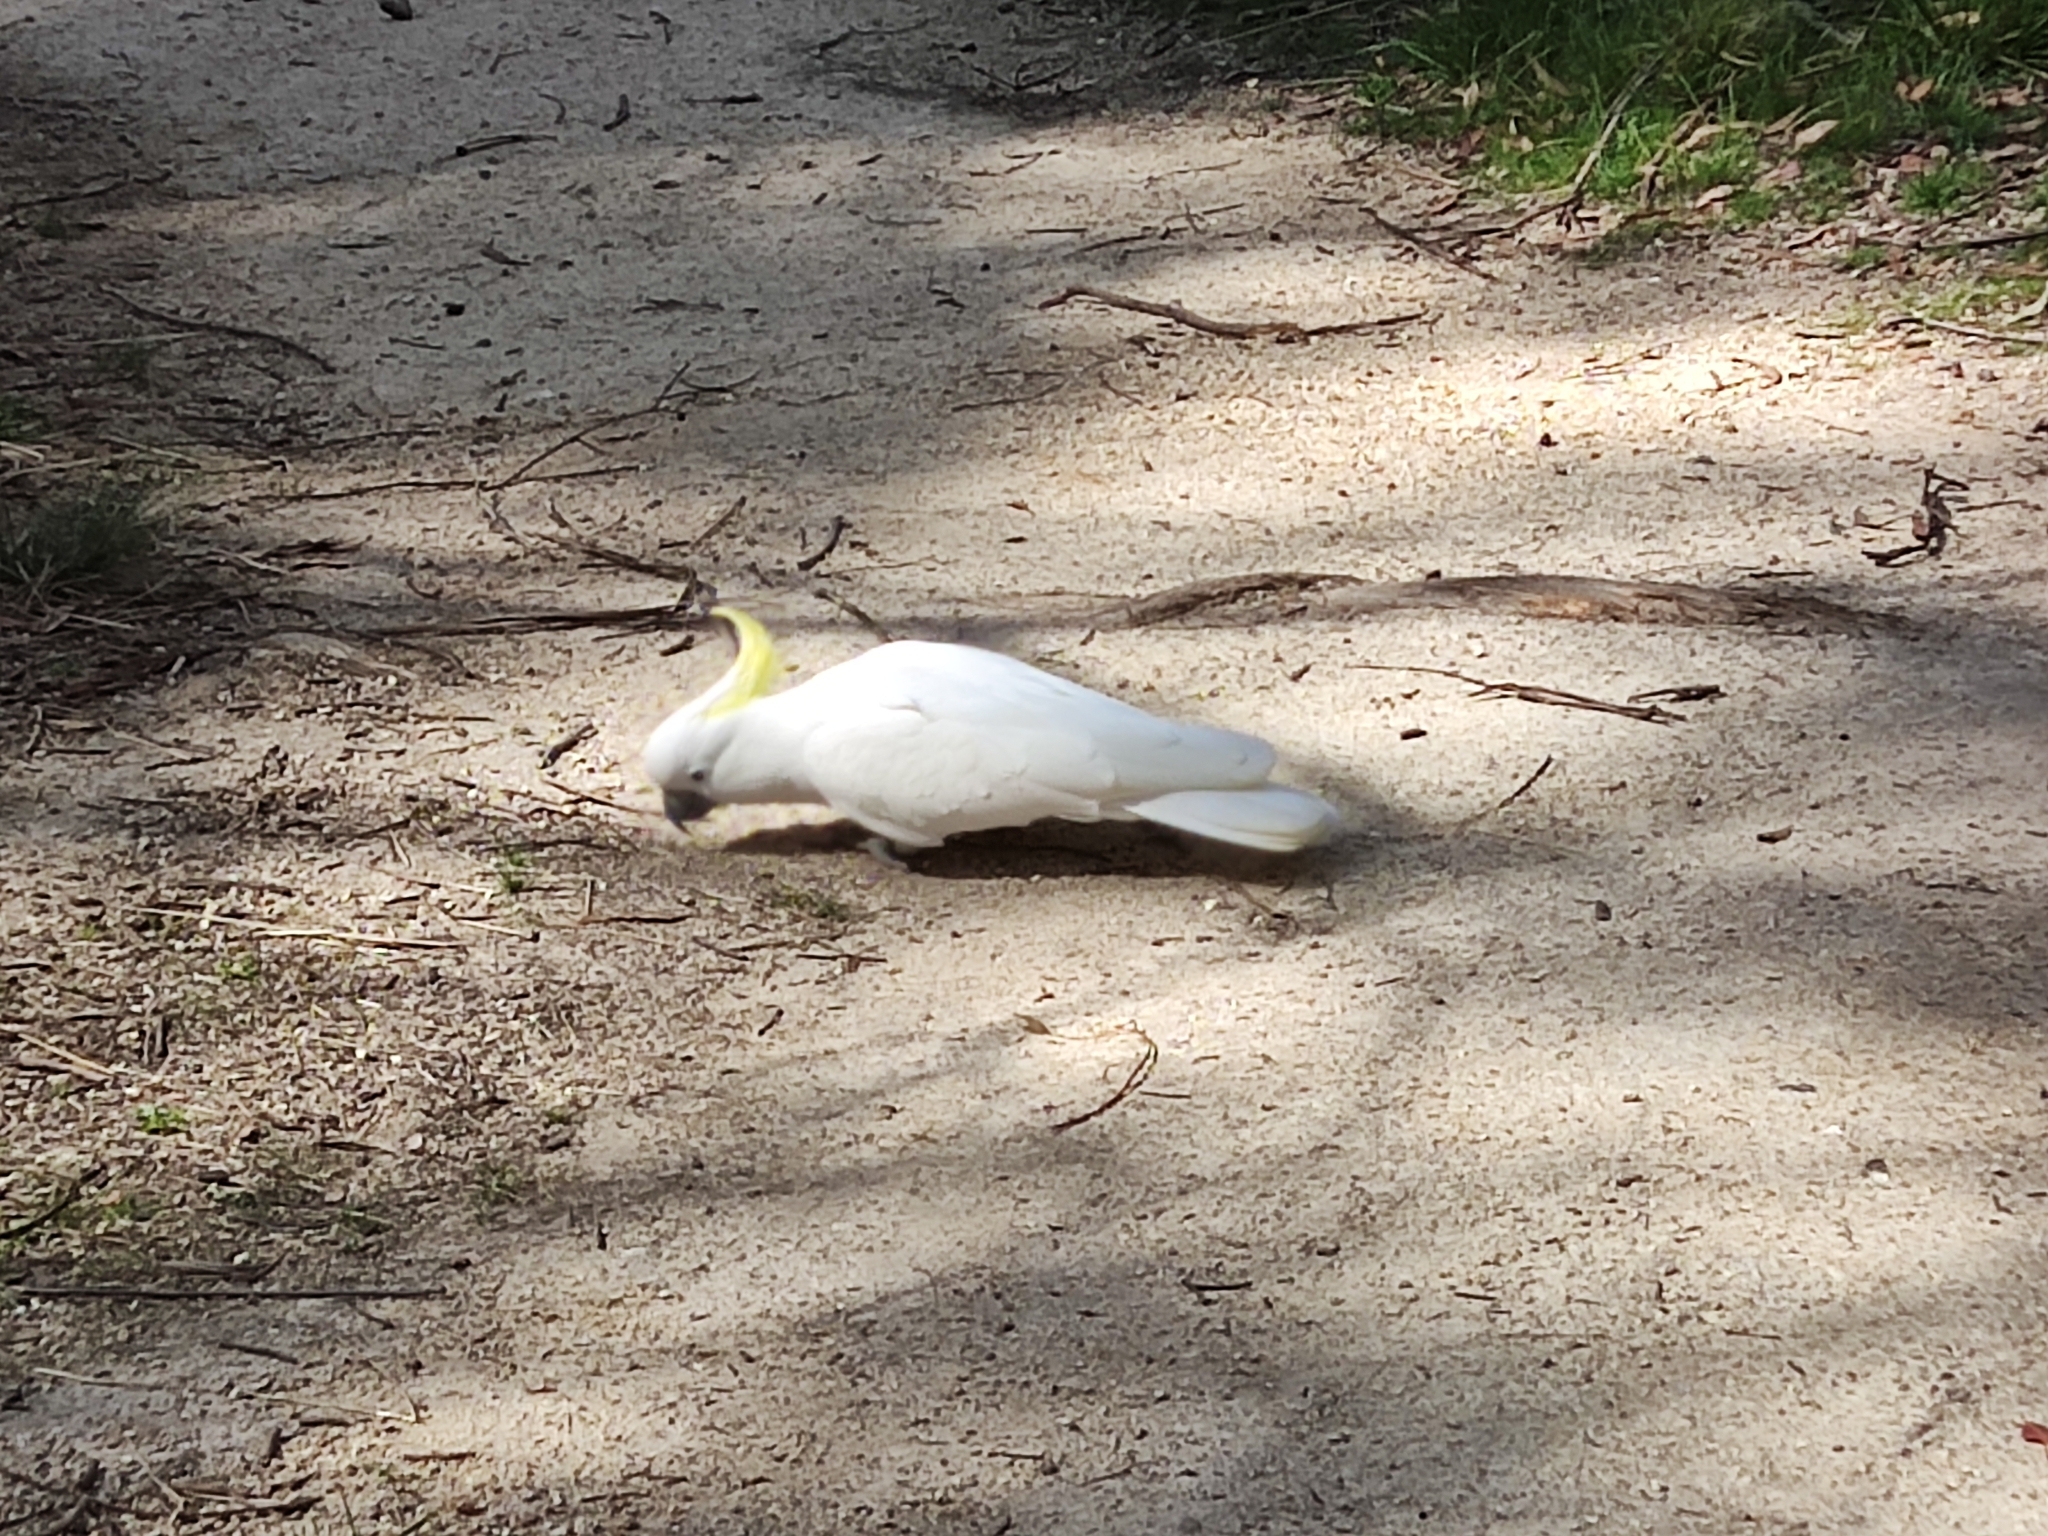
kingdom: Animalia
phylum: Chordata
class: Aves
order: Psittaciformes
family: Psittacidae
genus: Cacatua
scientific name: Cacatua galerita
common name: Sulphur-crested cockatoo
